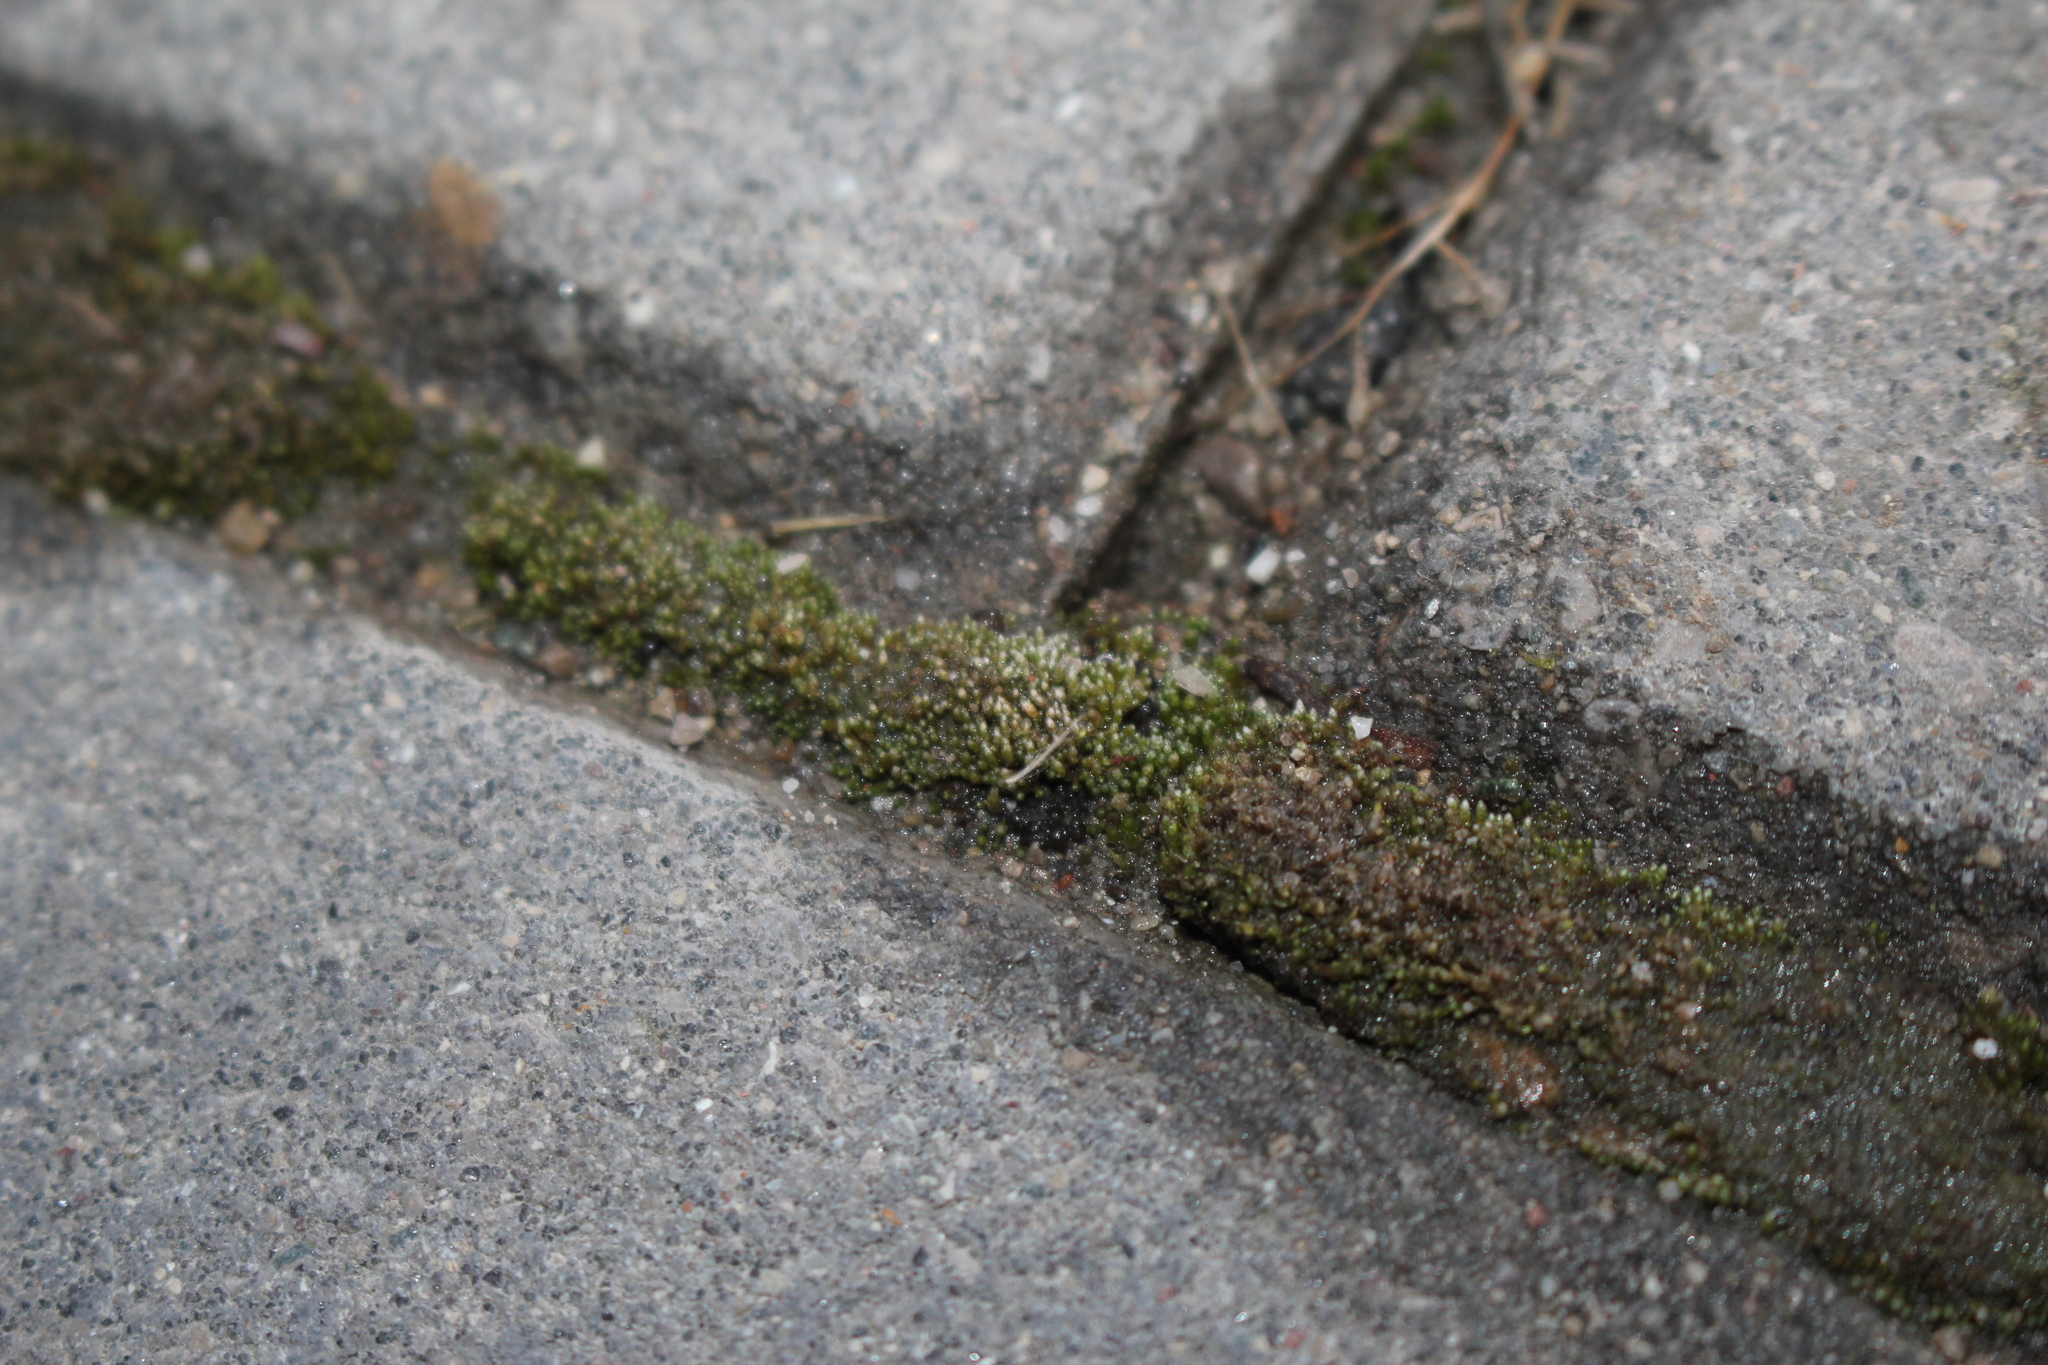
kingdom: Plantae
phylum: Bryophyta
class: Bryopsida
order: Bryales
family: Bryaceae
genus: Bryum
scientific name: Bryum argenteum
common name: Silver-moss
